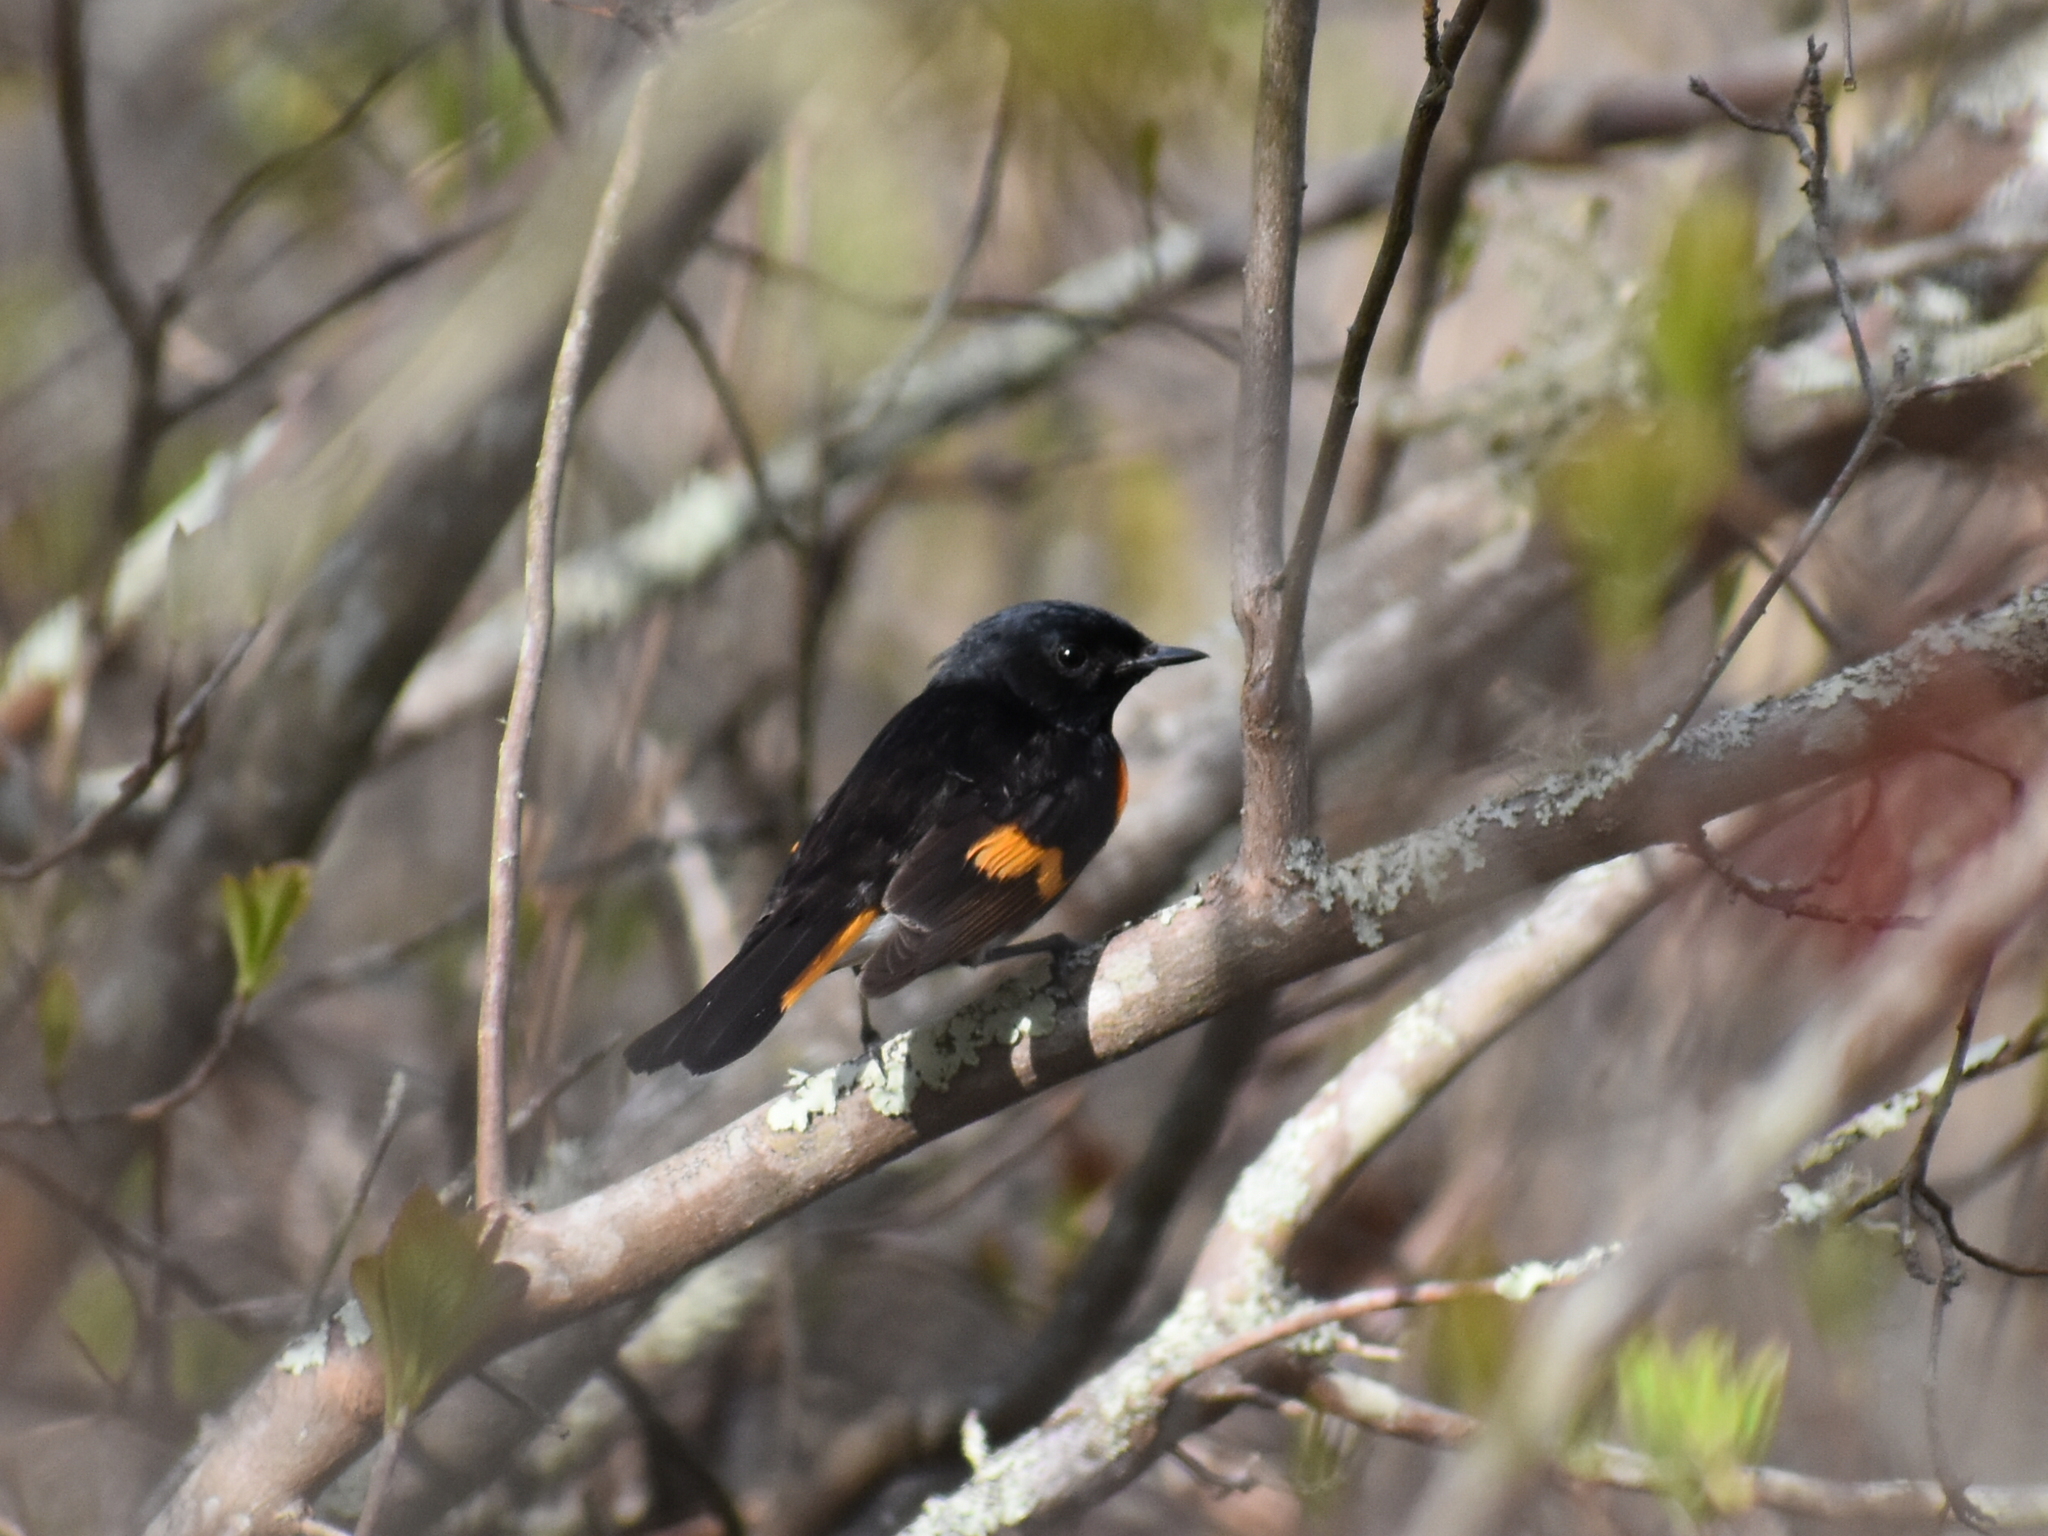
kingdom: Animalia
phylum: Chordata
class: Aves
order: Passeriformes
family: Parulidae
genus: Setophaga
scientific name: Setophaga ruticilla
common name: American redstart
